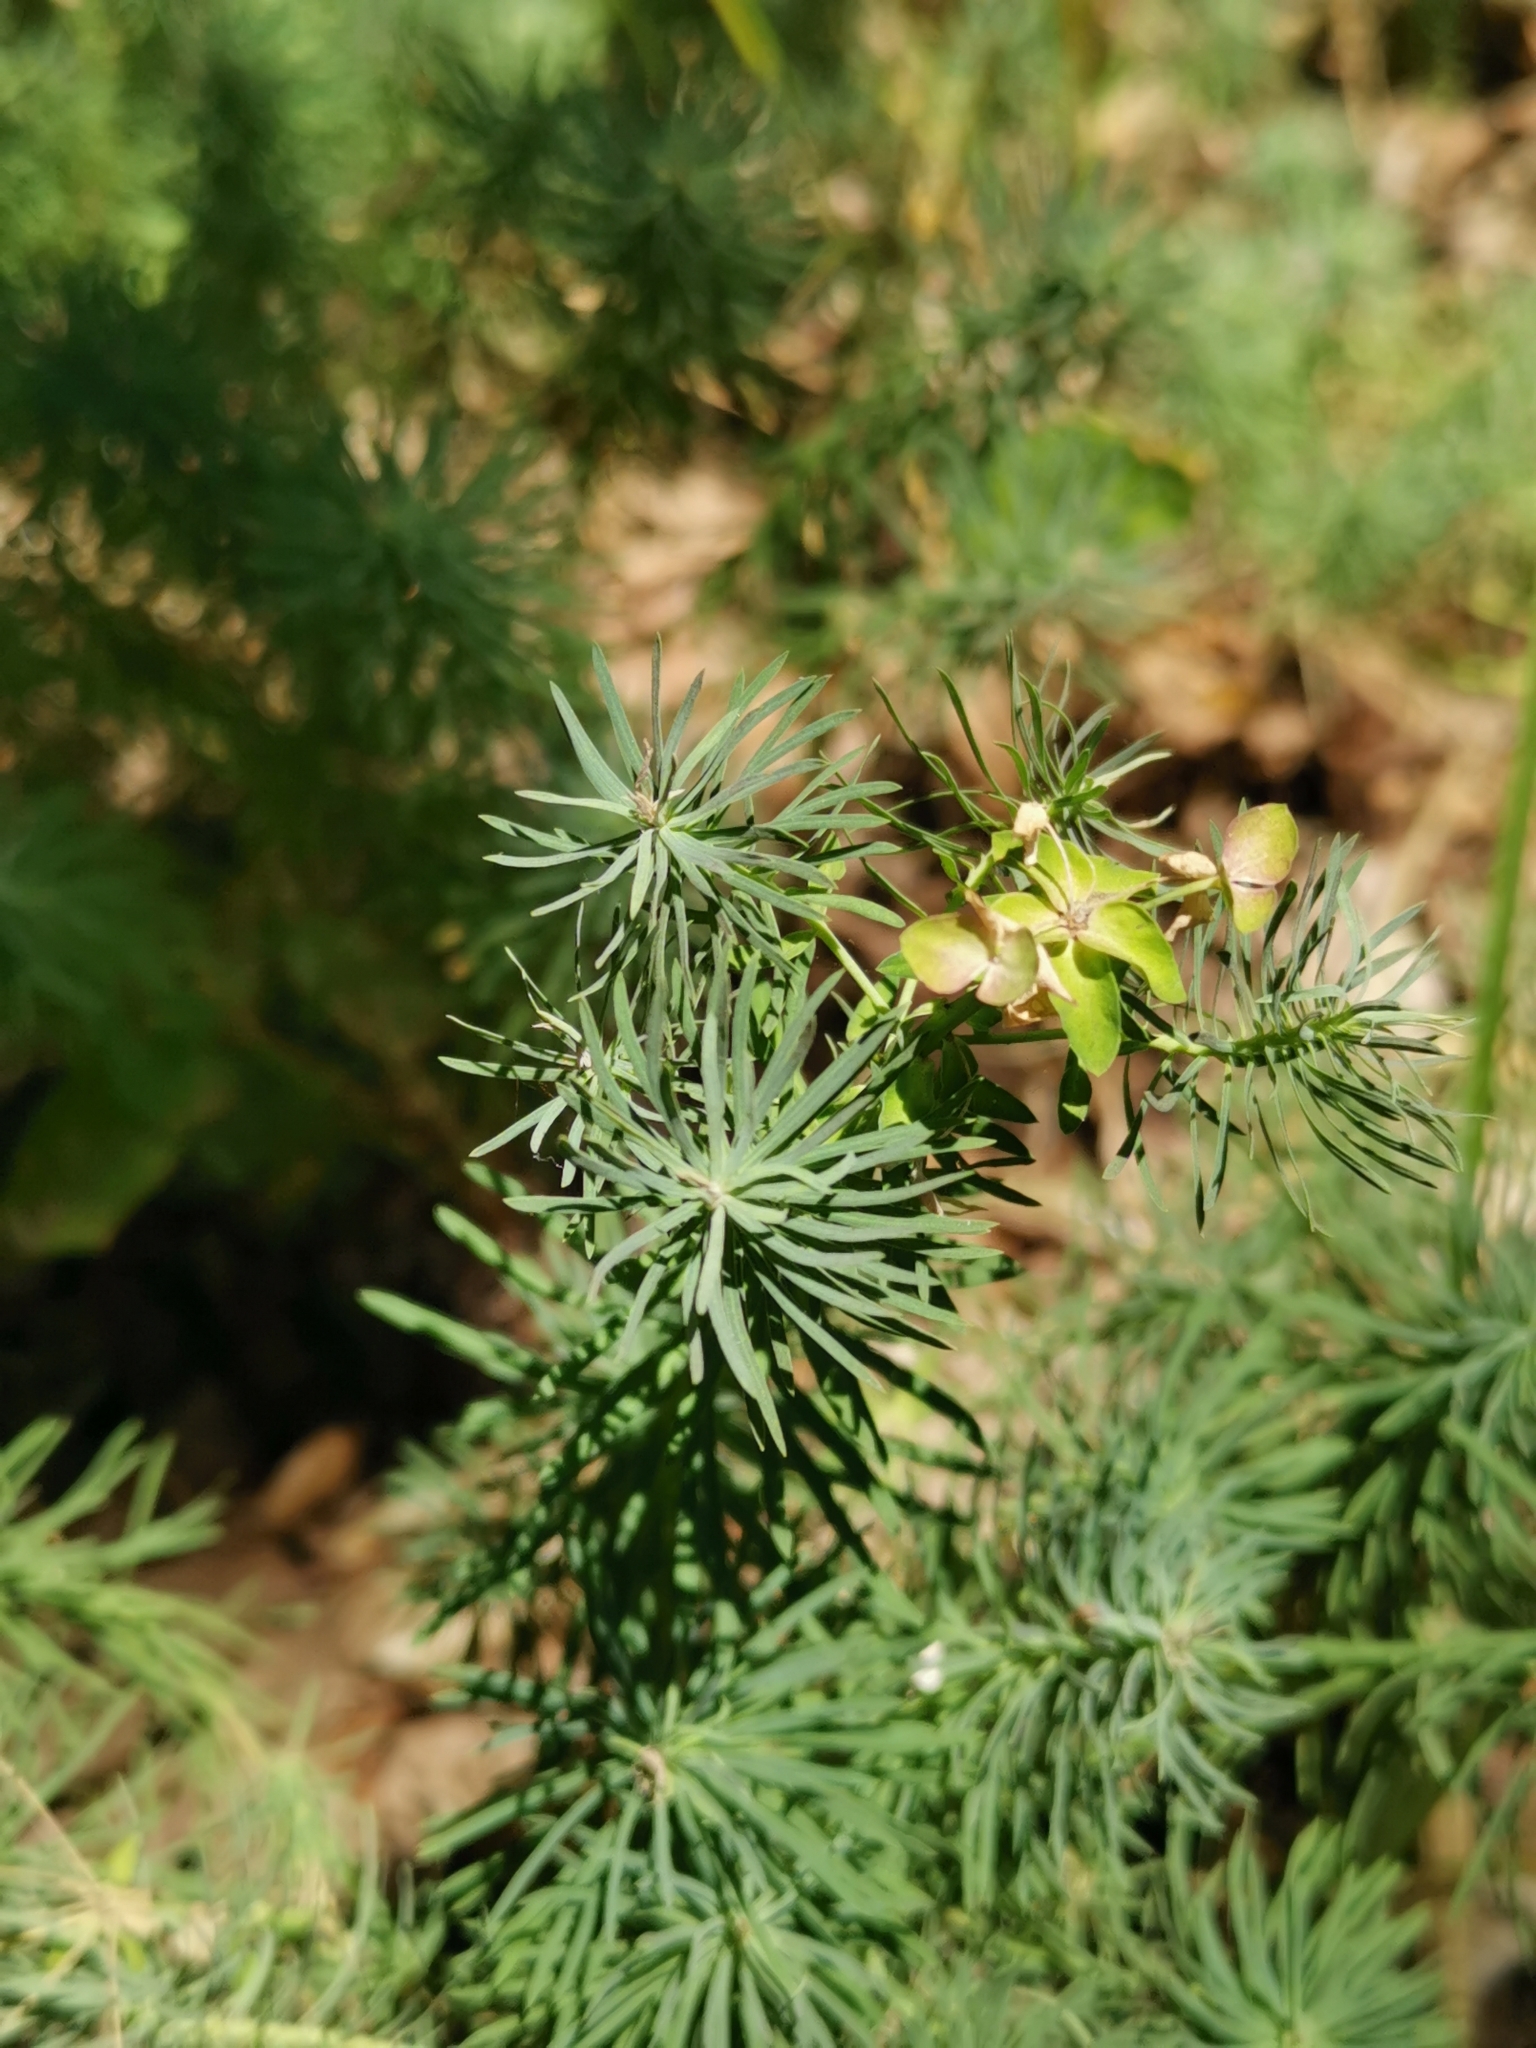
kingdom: Plantae
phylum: Tracheophyta
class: Magnoliopsida
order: Malpighiales
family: Euphorbiaceae
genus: Euphorbia
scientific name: Euphorbia cyparissias
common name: Cypress spurge
